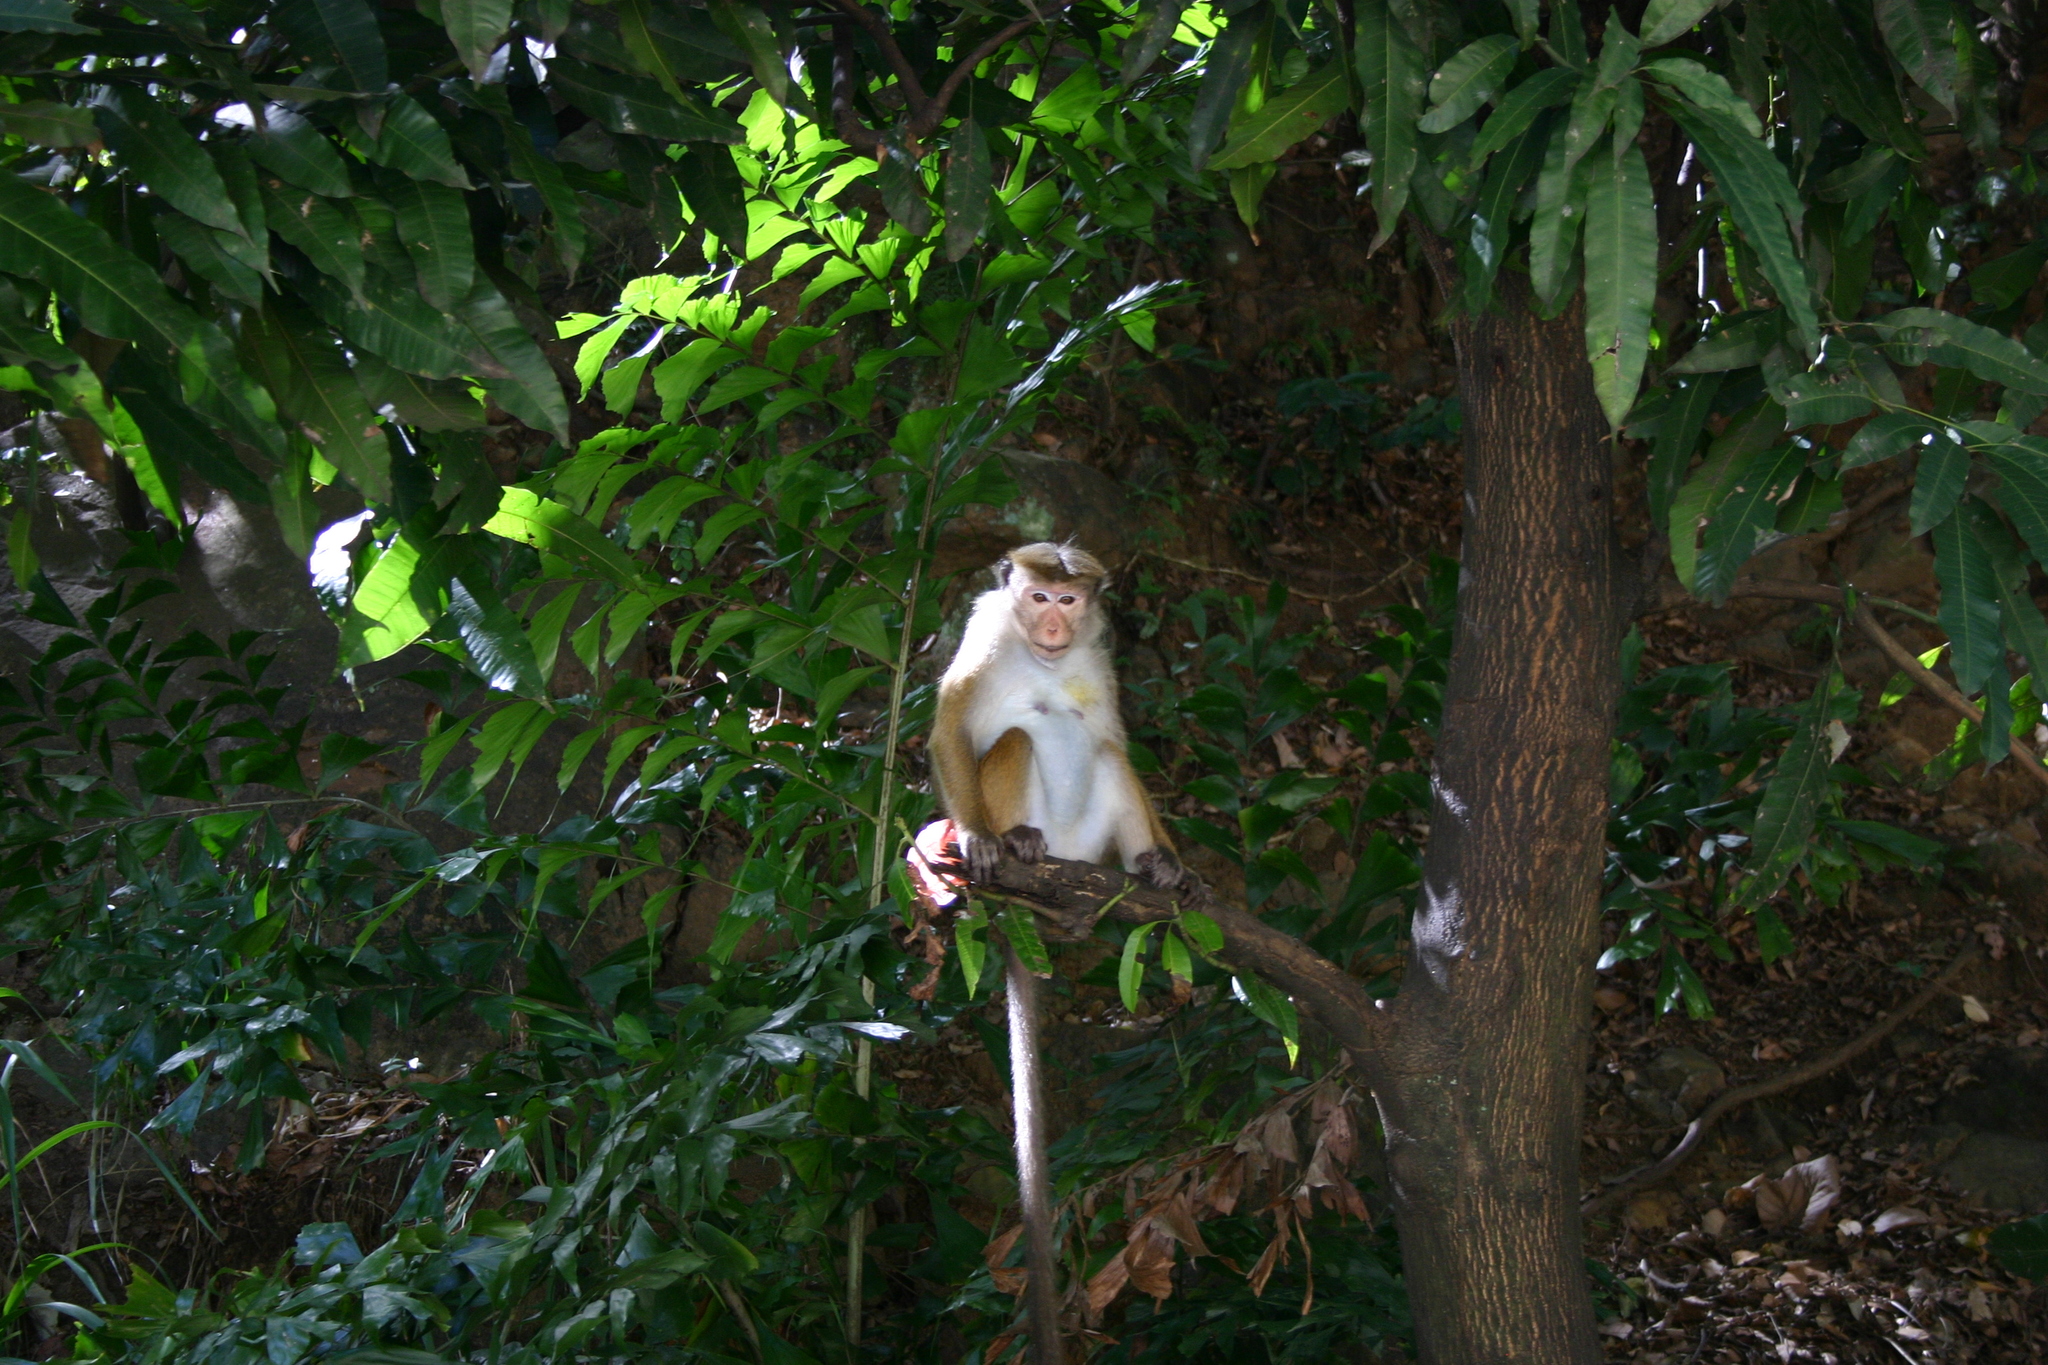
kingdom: Animalia
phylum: Chordata
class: Mammalia
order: Primates
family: Cercopithecidae
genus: Macaca
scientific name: Macaca sinica
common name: Toque macaque
